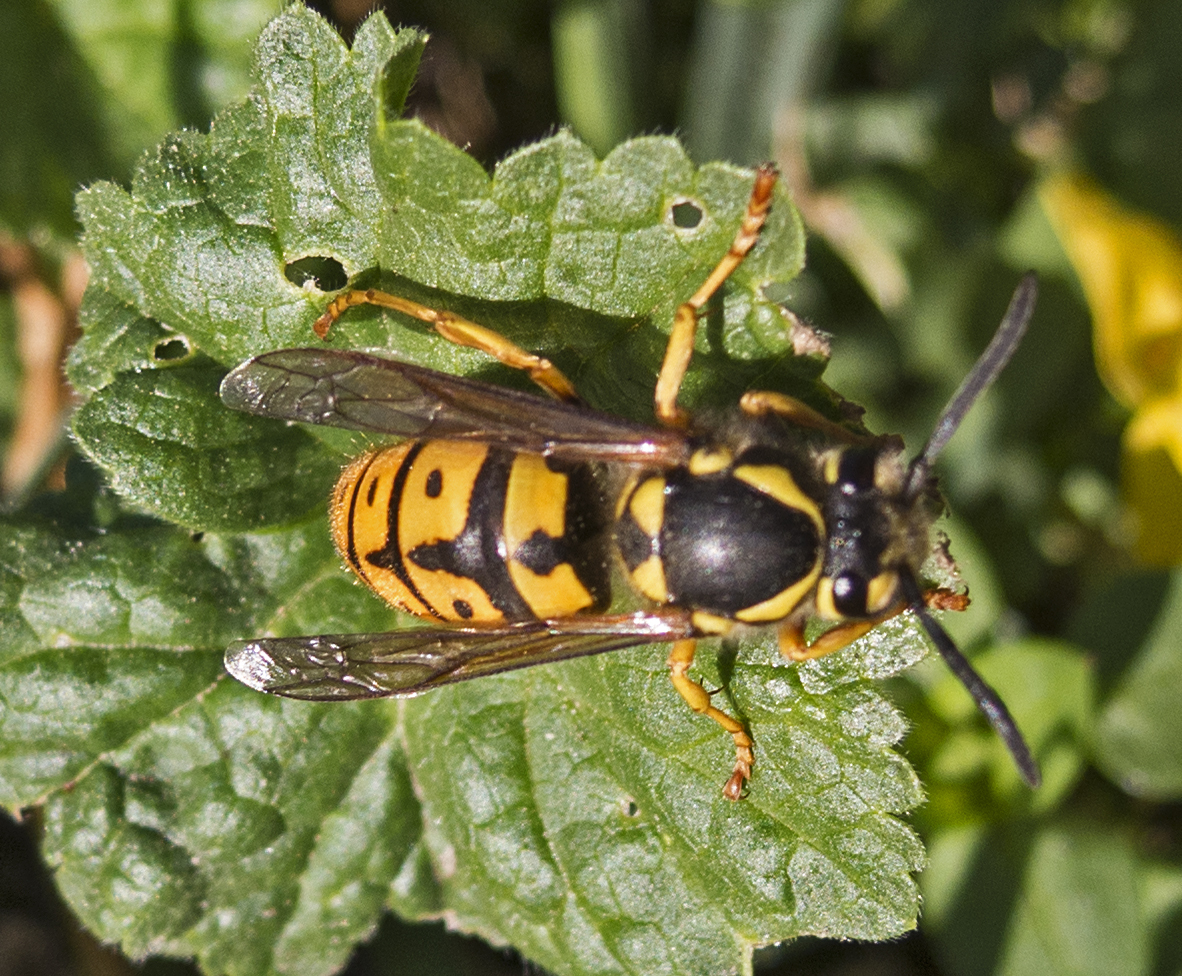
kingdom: Animalia
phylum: Arthropoda
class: Insecta
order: Hymenoptera
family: Vespidae
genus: Vespula
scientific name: Vespula germanica
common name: German wasp
